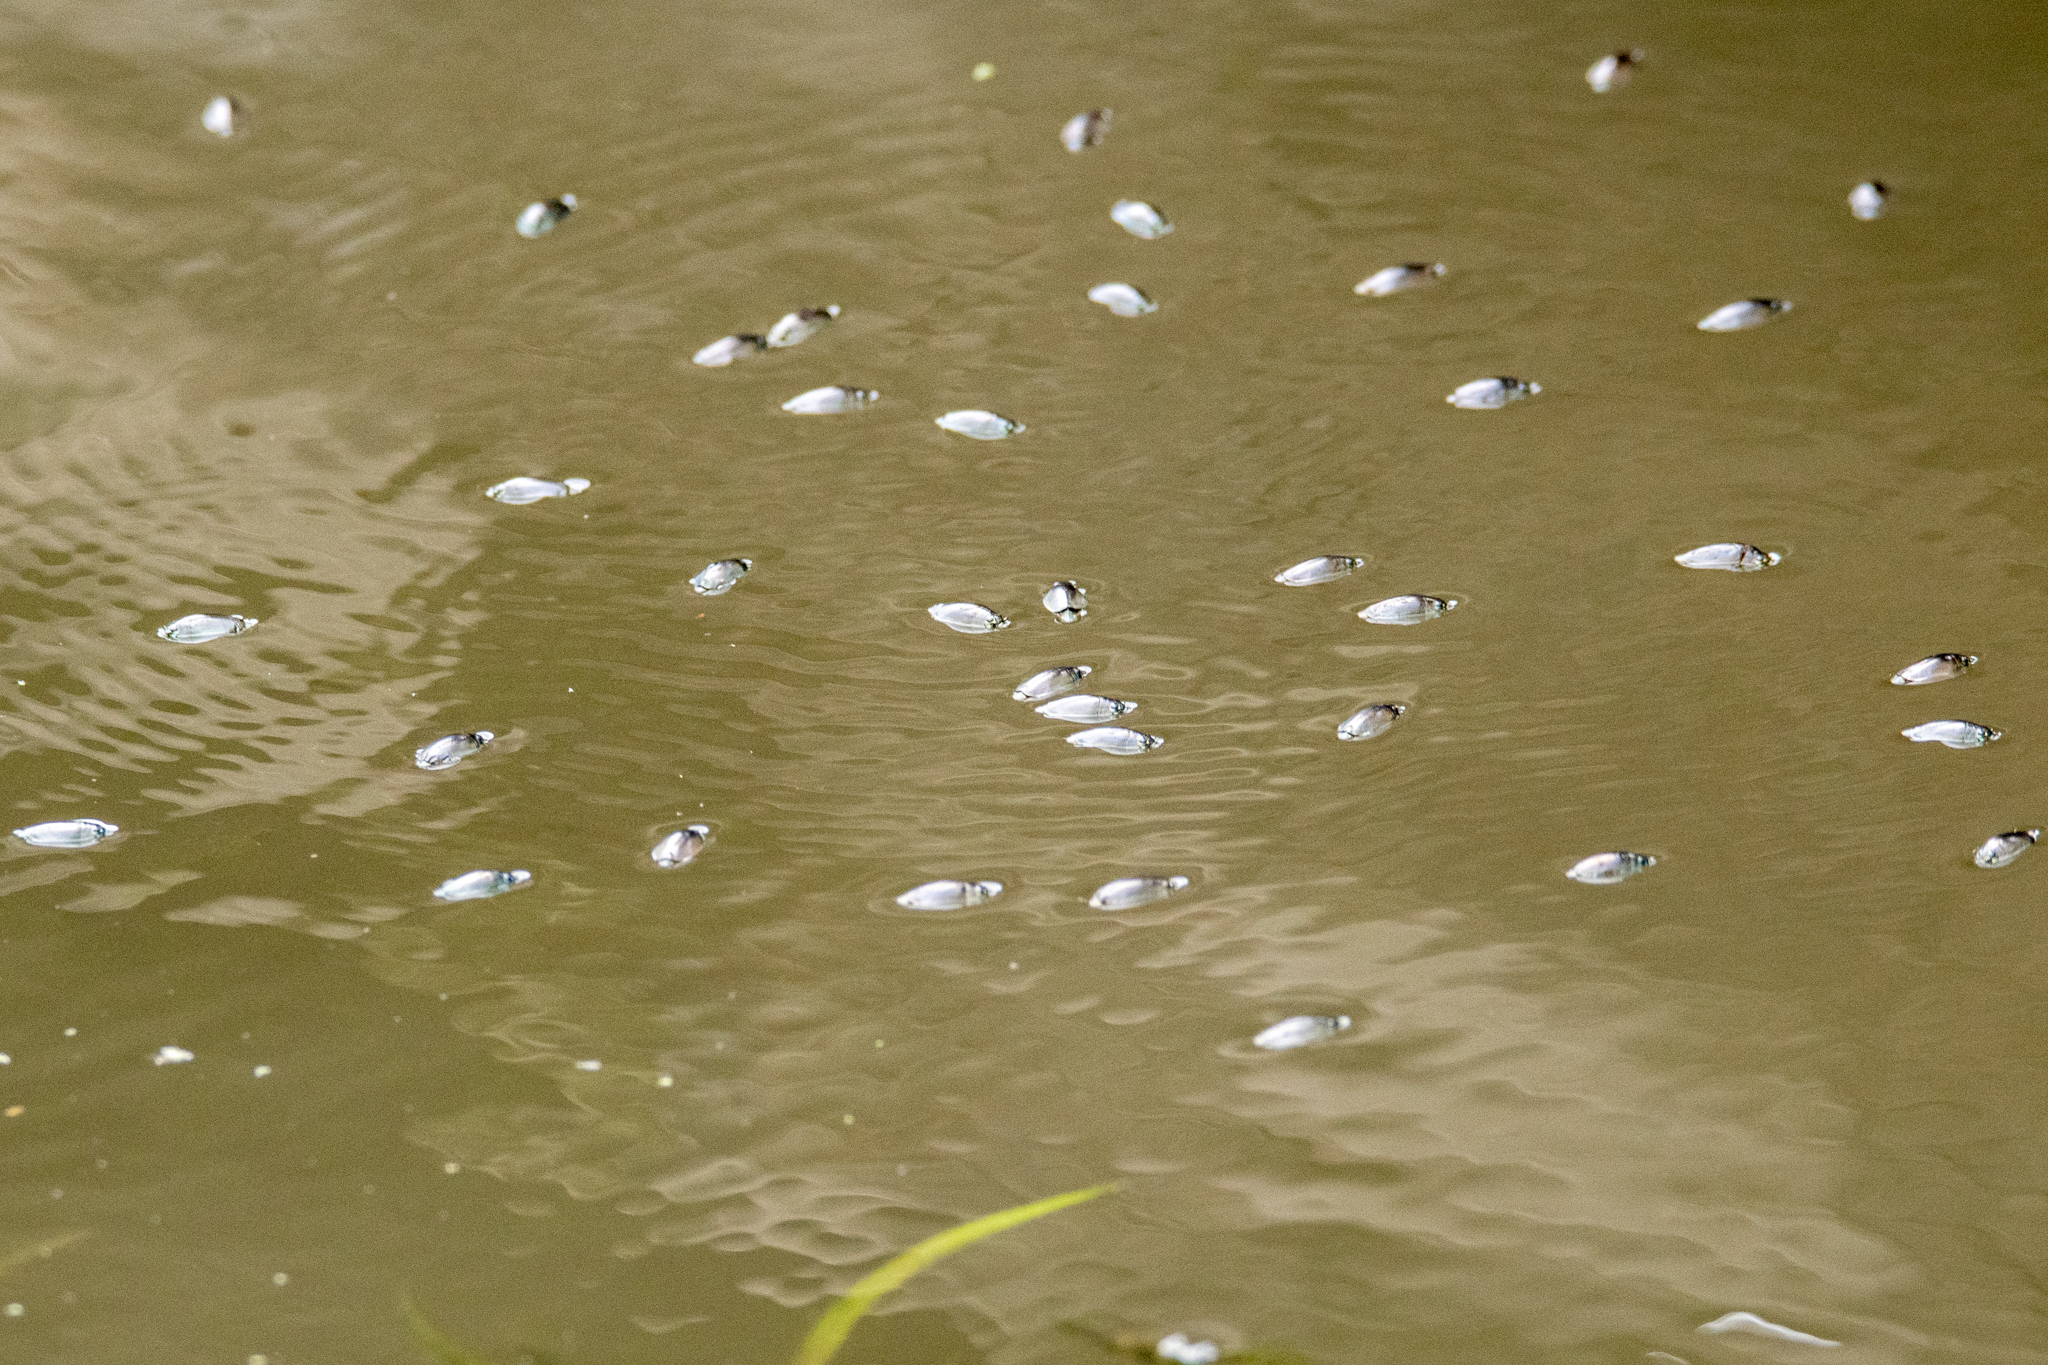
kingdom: Animalia
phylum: Arthropoda
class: Insecta
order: Coleoptera
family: Gyrinidae
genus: Dineutus
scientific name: Dineutus
